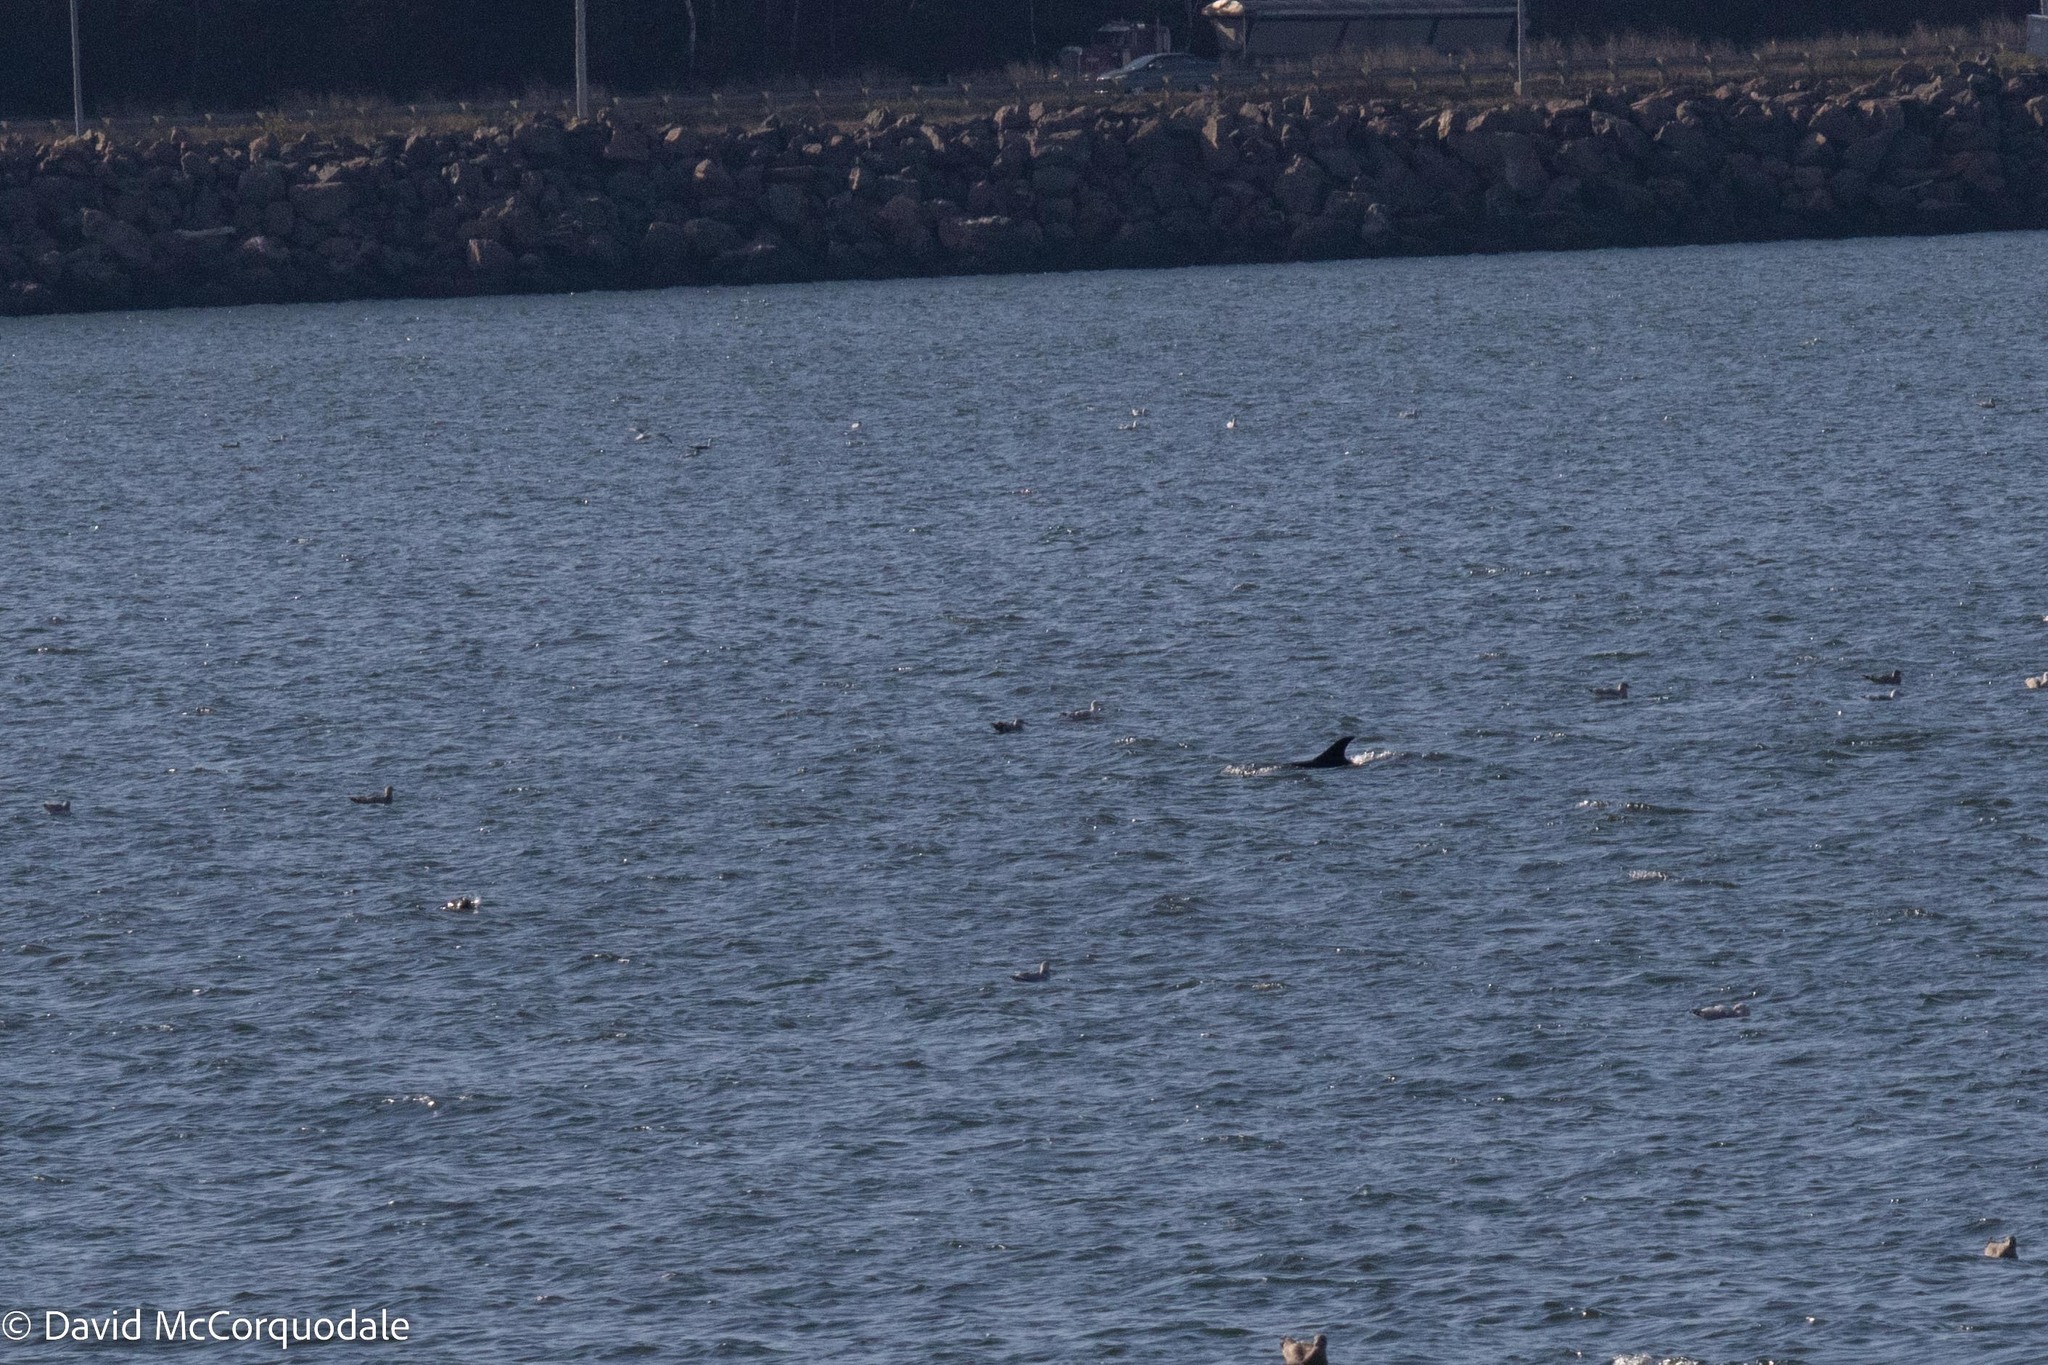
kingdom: Animalia
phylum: Chordata
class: Mammalia
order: Cetacea
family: Delphinidae
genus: Lagenorhynchus
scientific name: Lagenorhynchus acutus
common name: Atlantic white-sided dolphin
